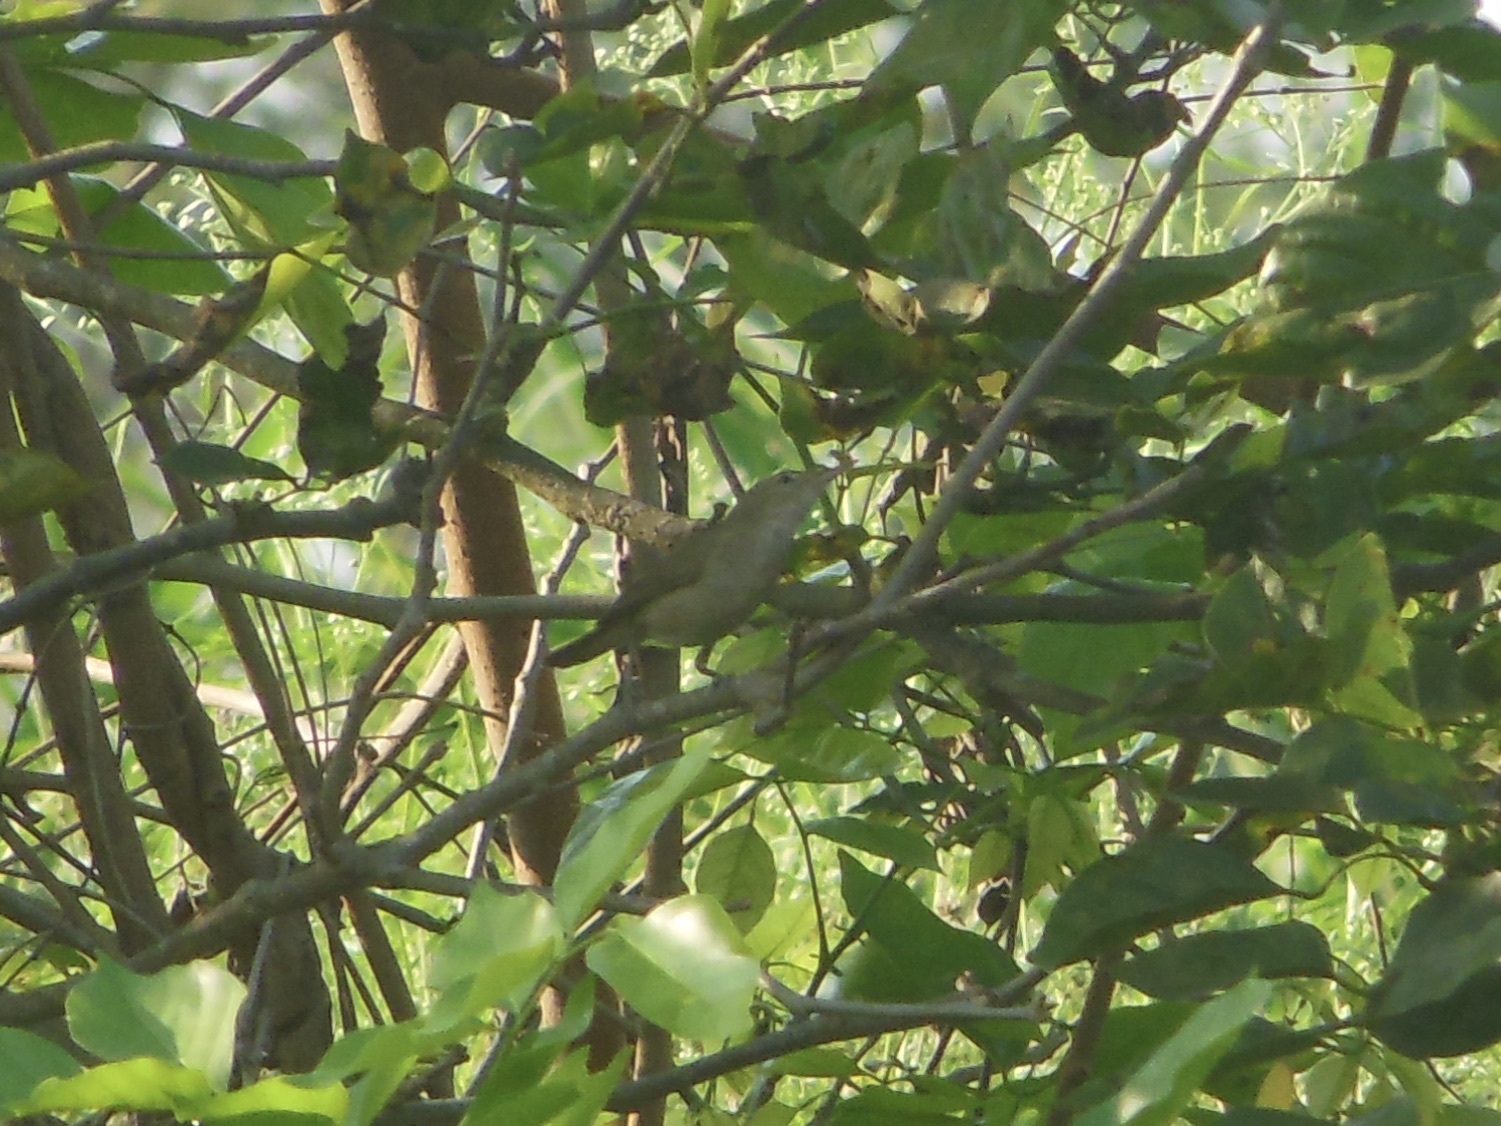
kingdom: Animalia
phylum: Chordata
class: Aves
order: Passeriformes
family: Acrocephalidae
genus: Acrocephalus
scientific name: Acrocephalus dumetorum
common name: Blyth's reed warbler
